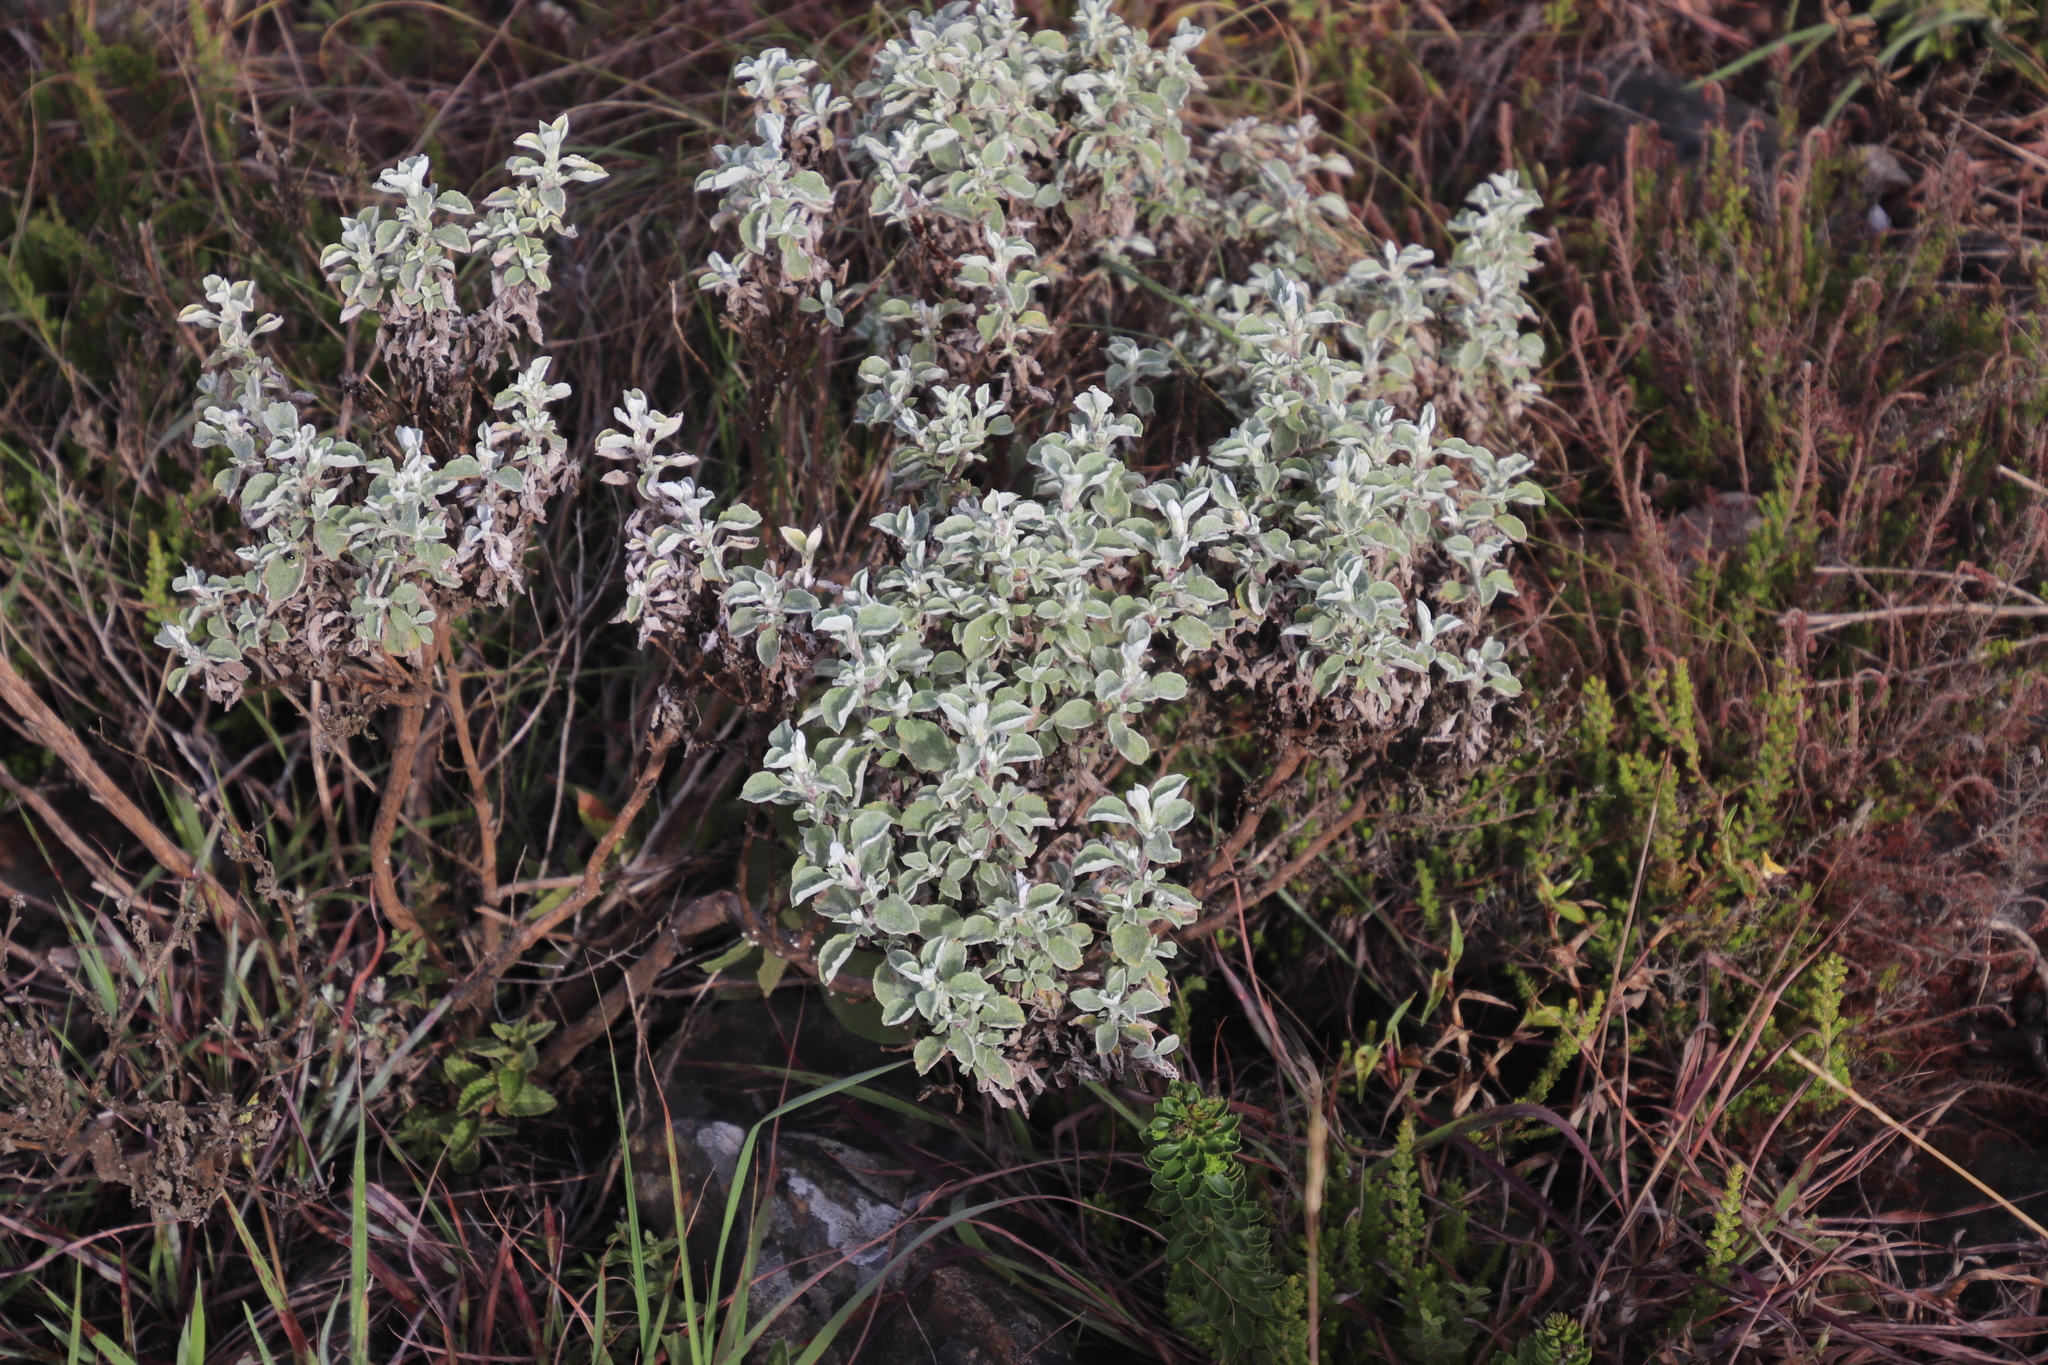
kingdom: Plantae
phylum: Tracheophyta
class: Magnoliopsida
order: Asterales
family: Asteraceae
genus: Helichrysum
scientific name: Helichrysum mimetes
